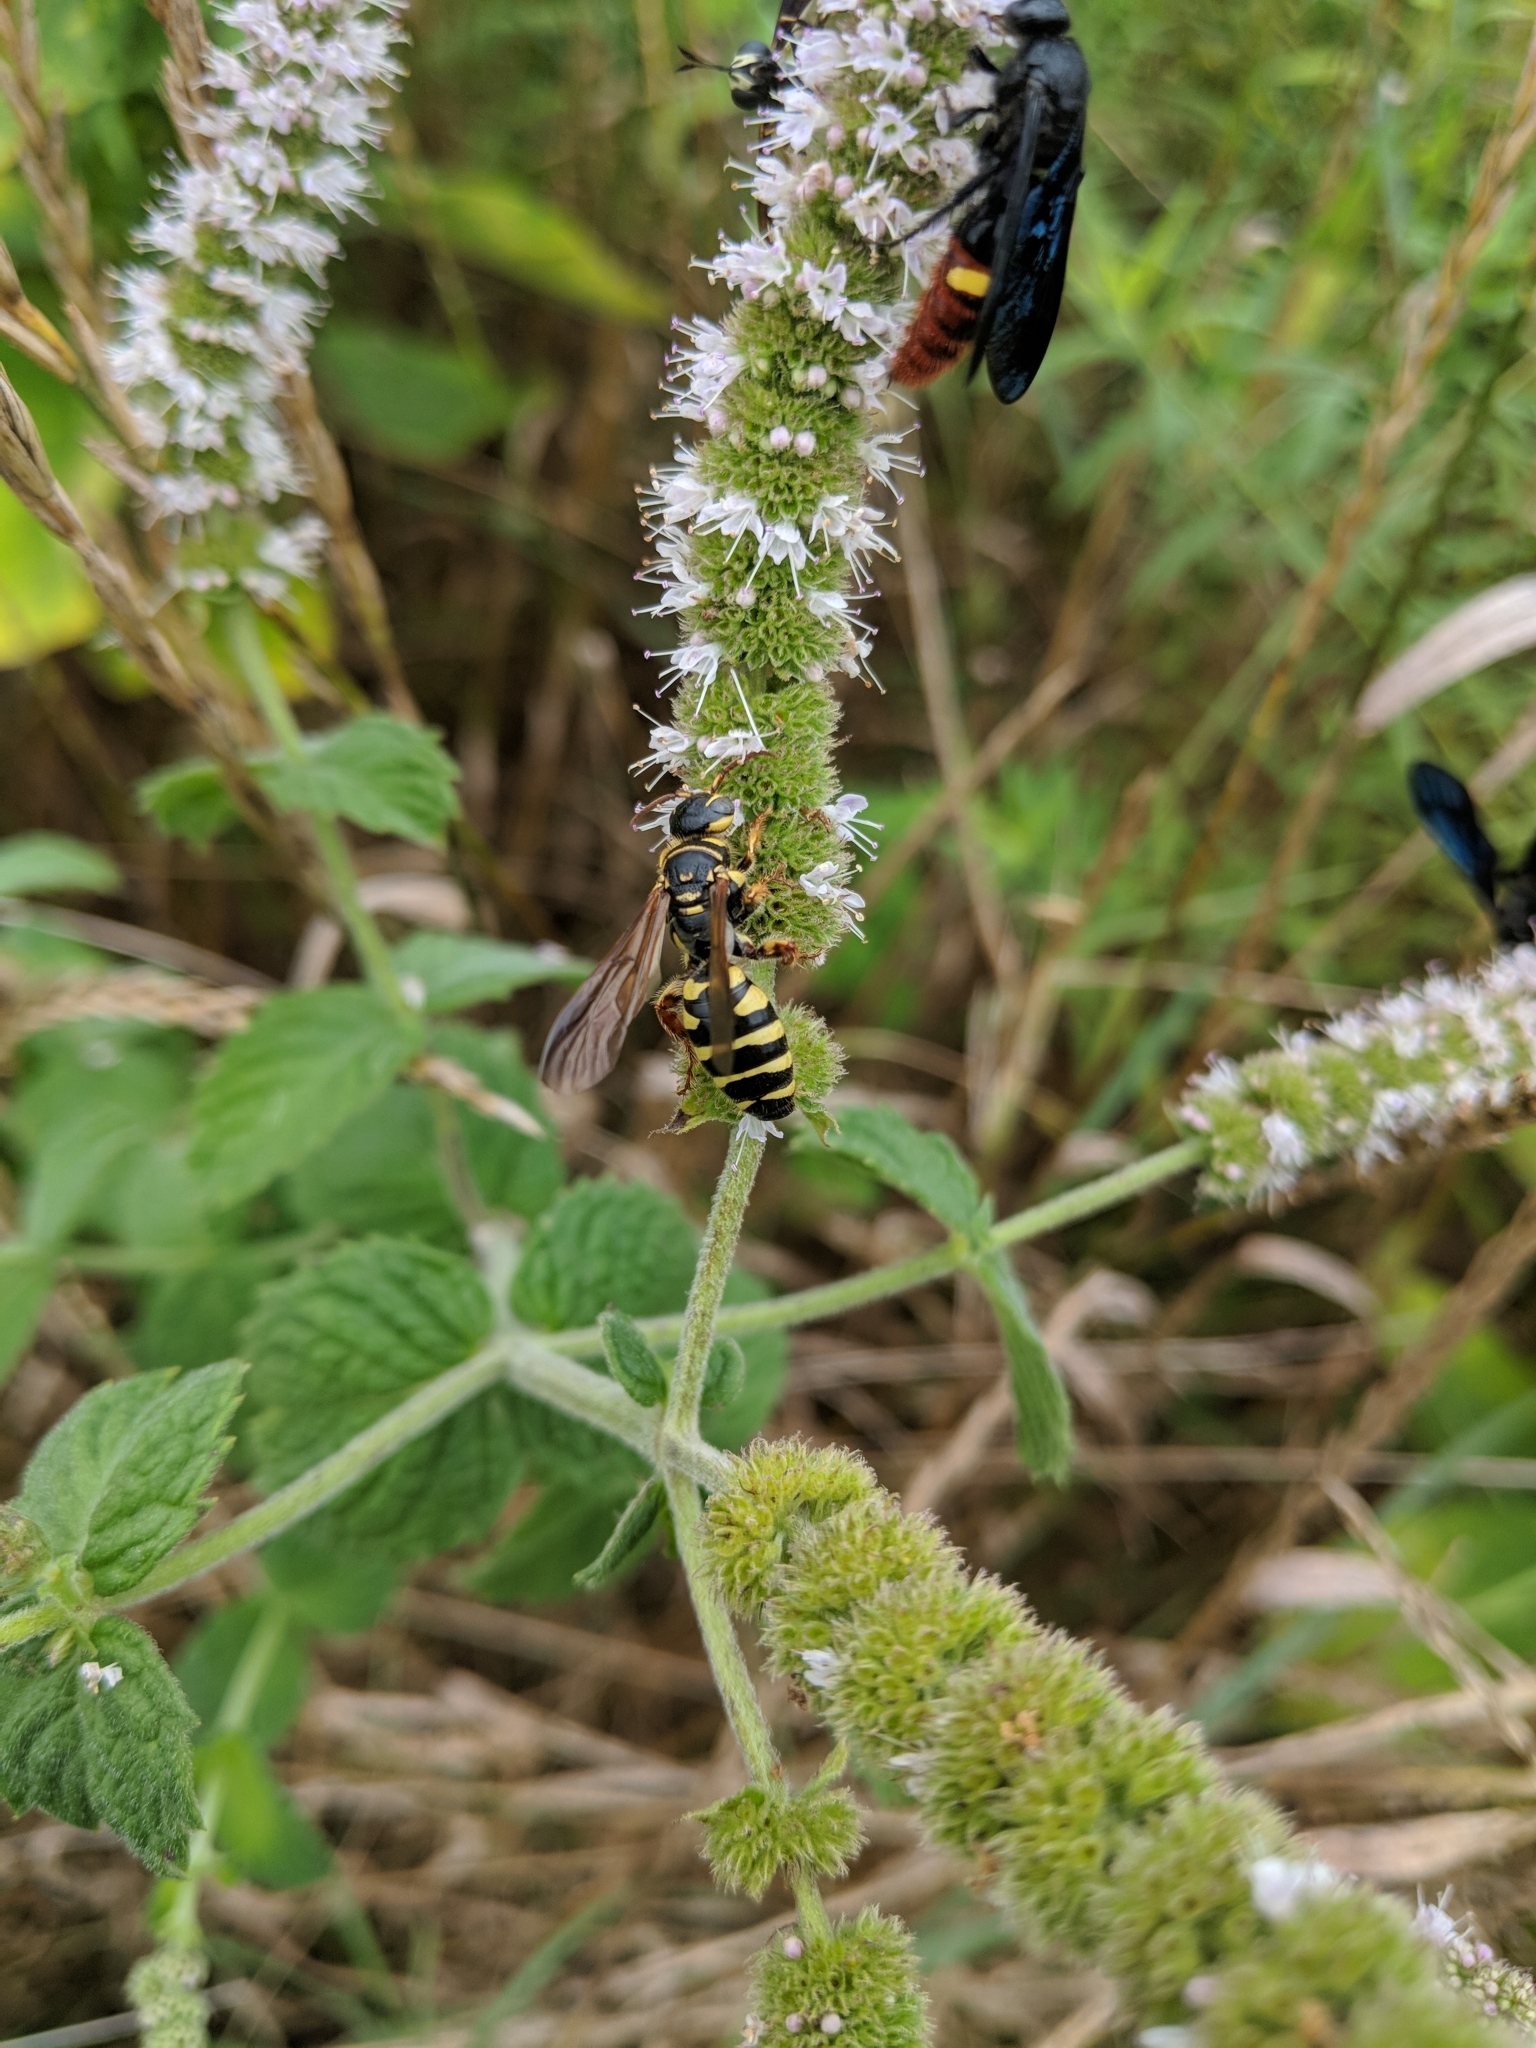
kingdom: Animalia
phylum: Arthropoda
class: Insecta
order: Hymenoptera
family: Tiphiidae
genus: Myzinum
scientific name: Myzinum quinquecinctum
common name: Five-banded thynnid wasp
